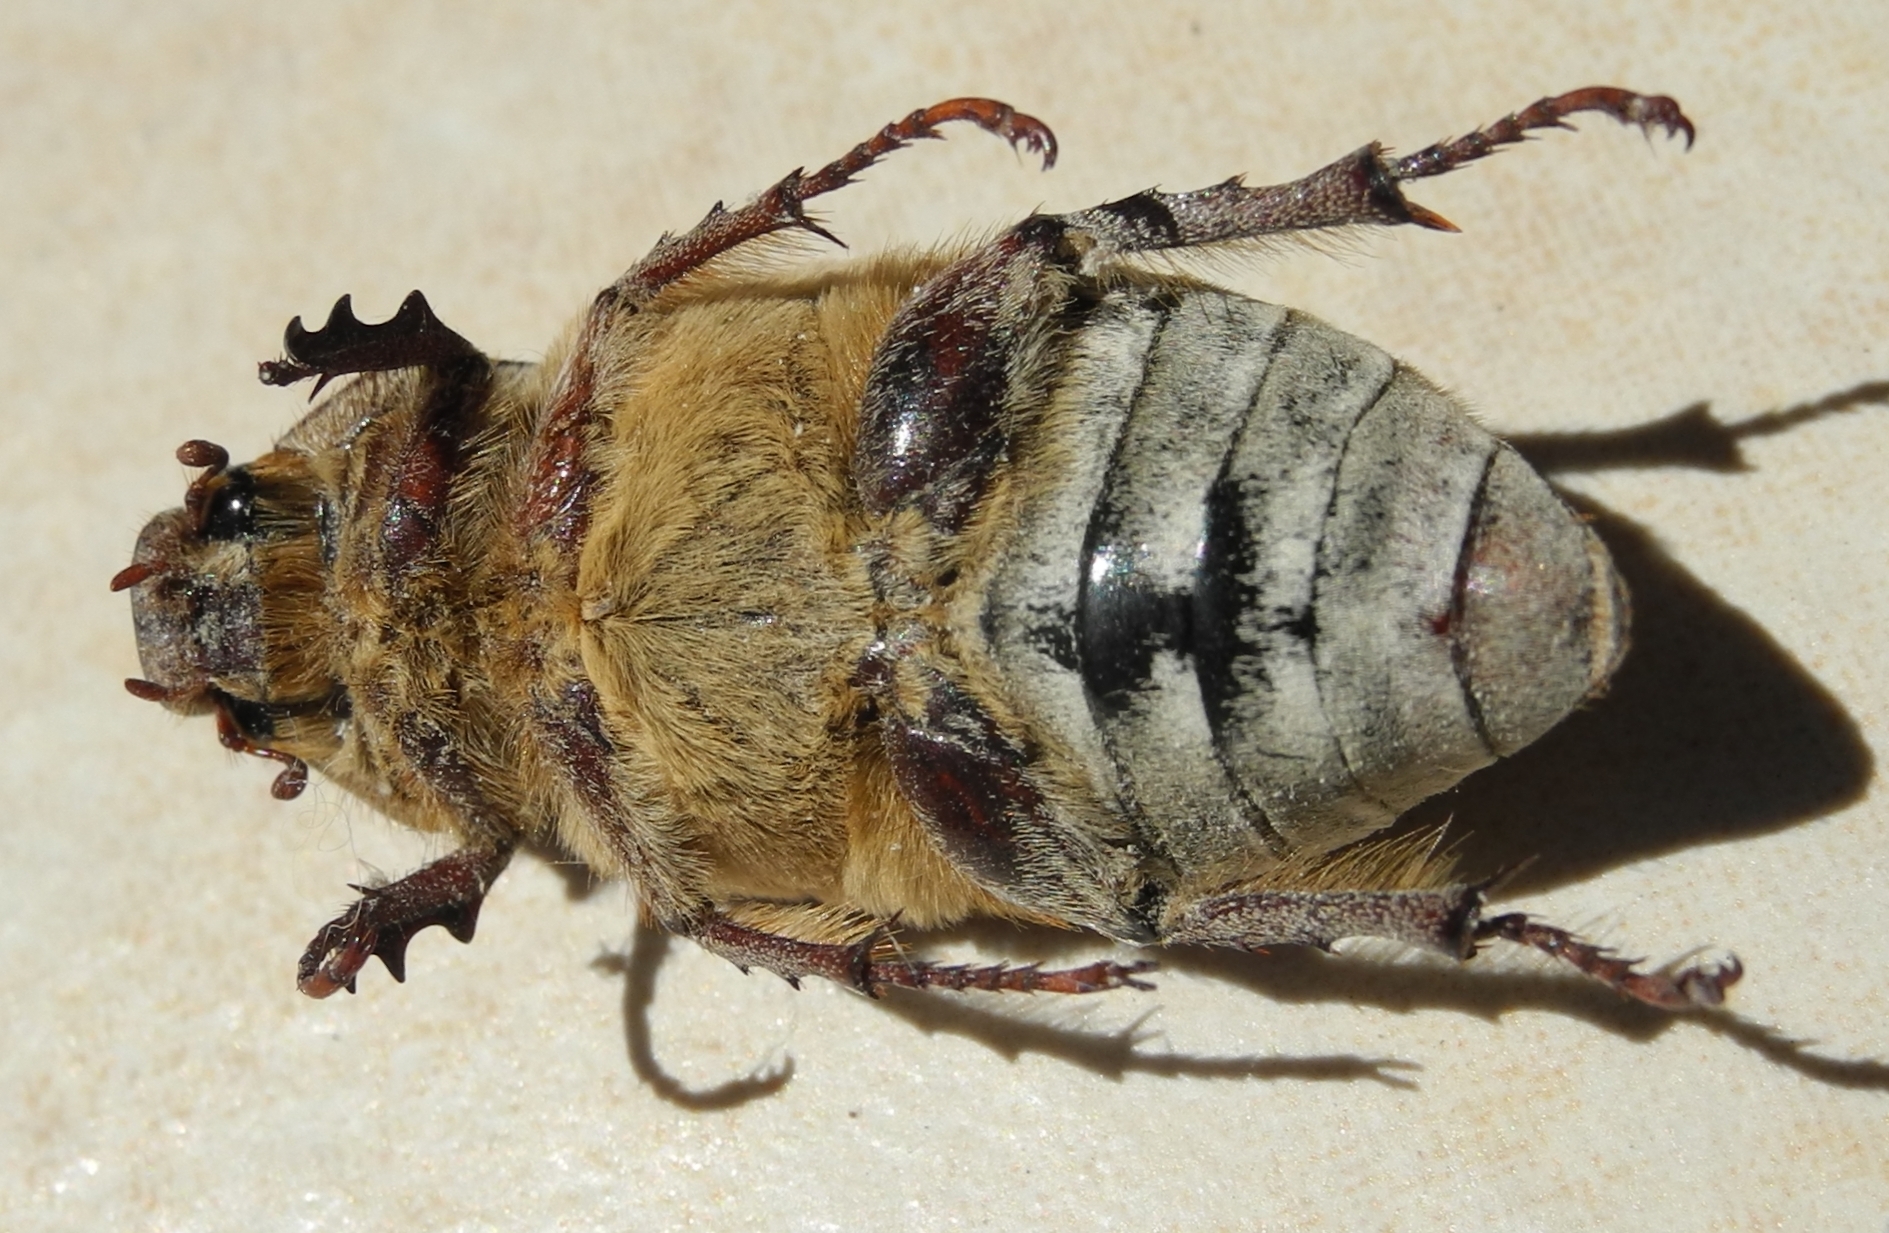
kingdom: Animalia
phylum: Arthropoda
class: Insecta
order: Coleoptera
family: Scarabaeidae
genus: Anoxia
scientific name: Anoxia orientalis
